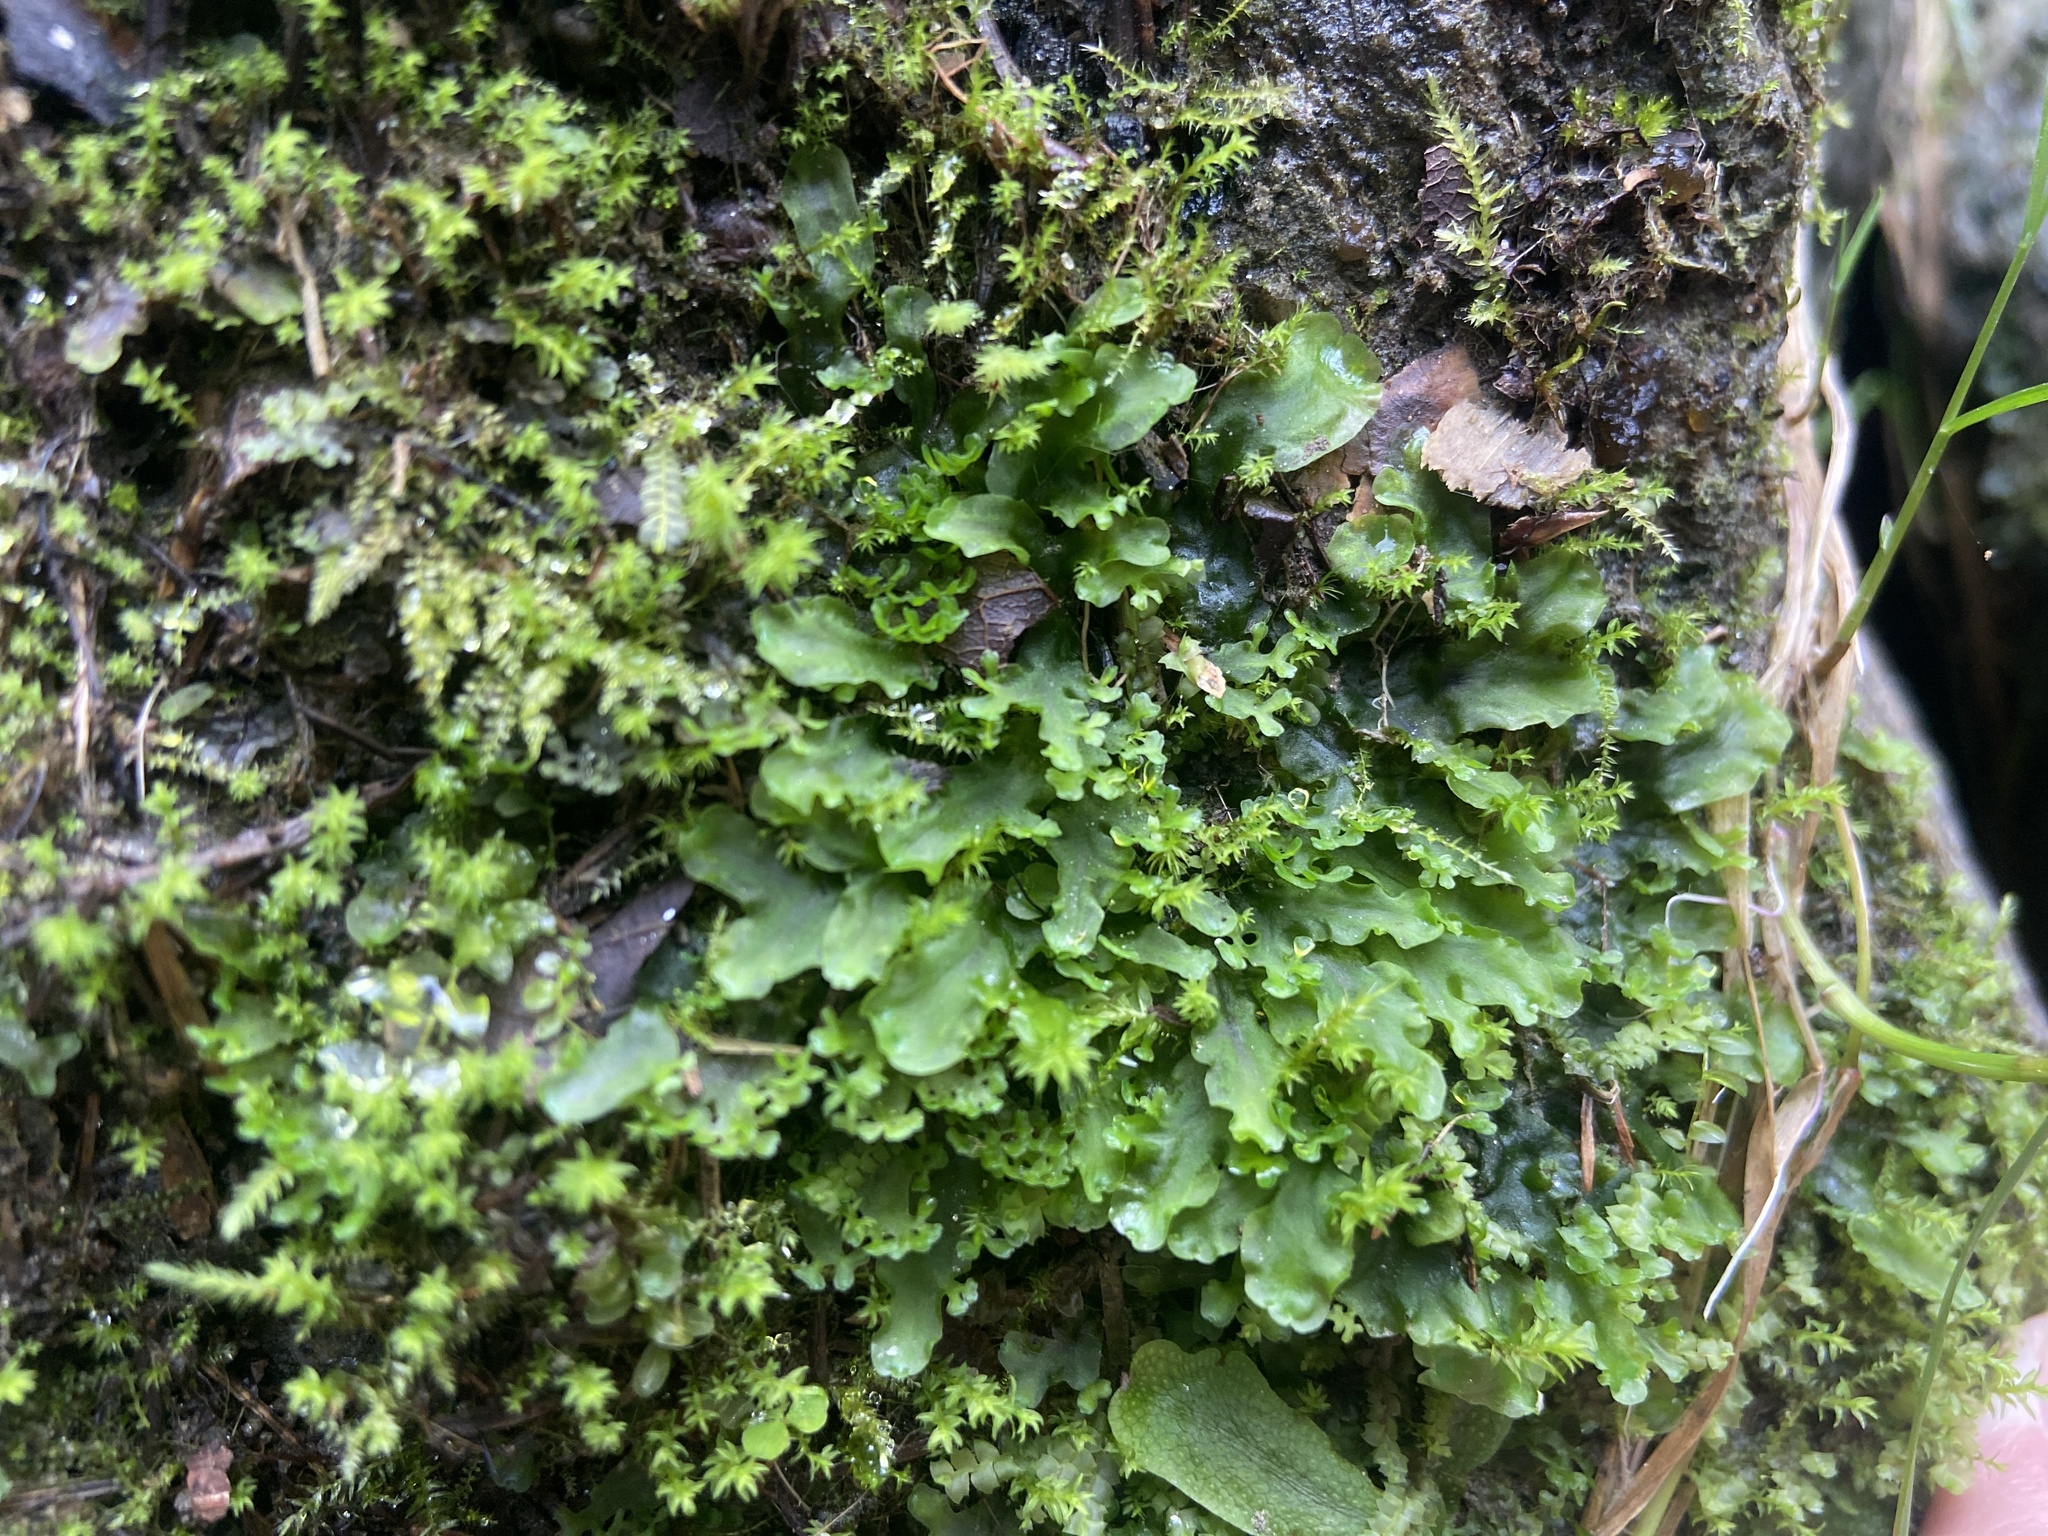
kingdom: Plantae
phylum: Marchantiophyta
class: Jungermanniopsida
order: Pelliales
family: Pelliaceae
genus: Apopellia
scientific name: Apopellia endiviifolia
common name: Endive pellia
